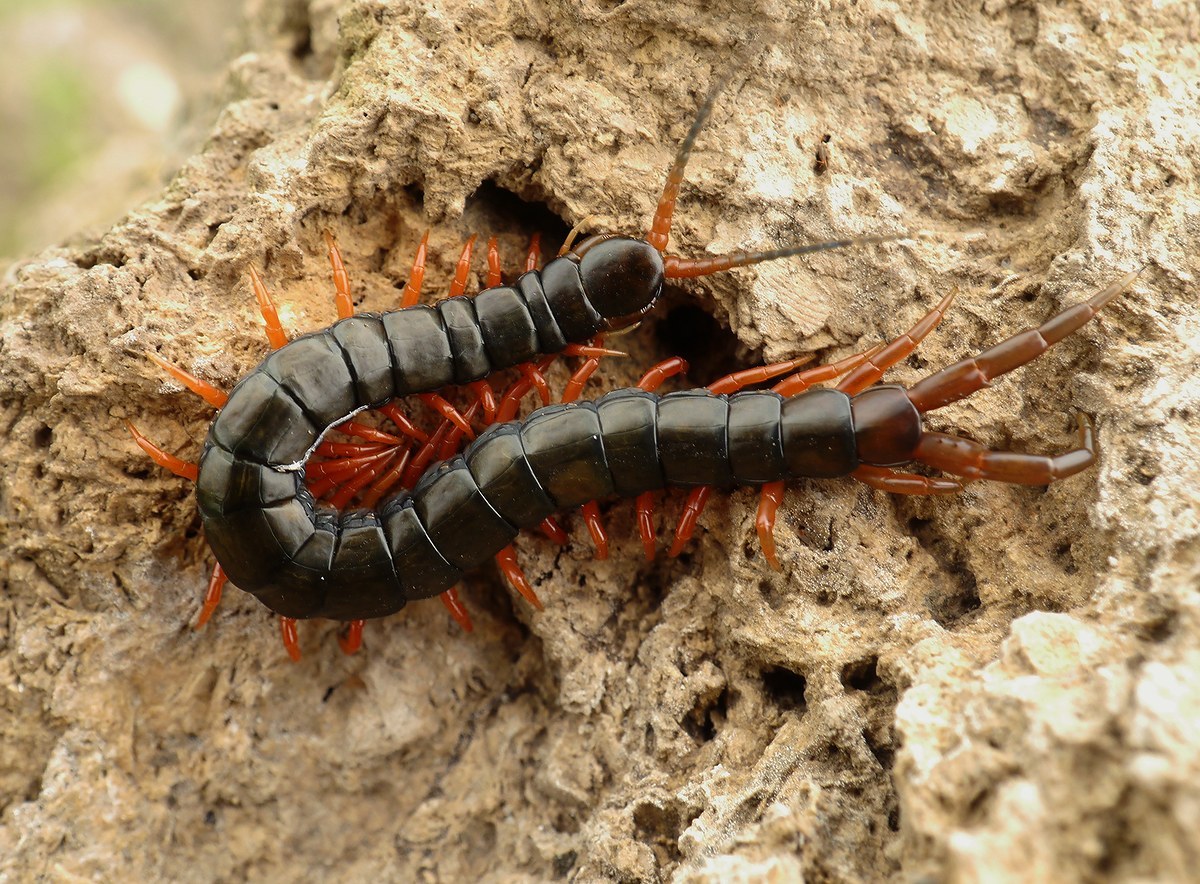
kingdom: Animalia
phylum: Arthropoda
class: Chilopoda
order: Scolopendromorpha
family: Scolopendridae
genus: Scolopendra
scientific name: Scolopendra cingulata
